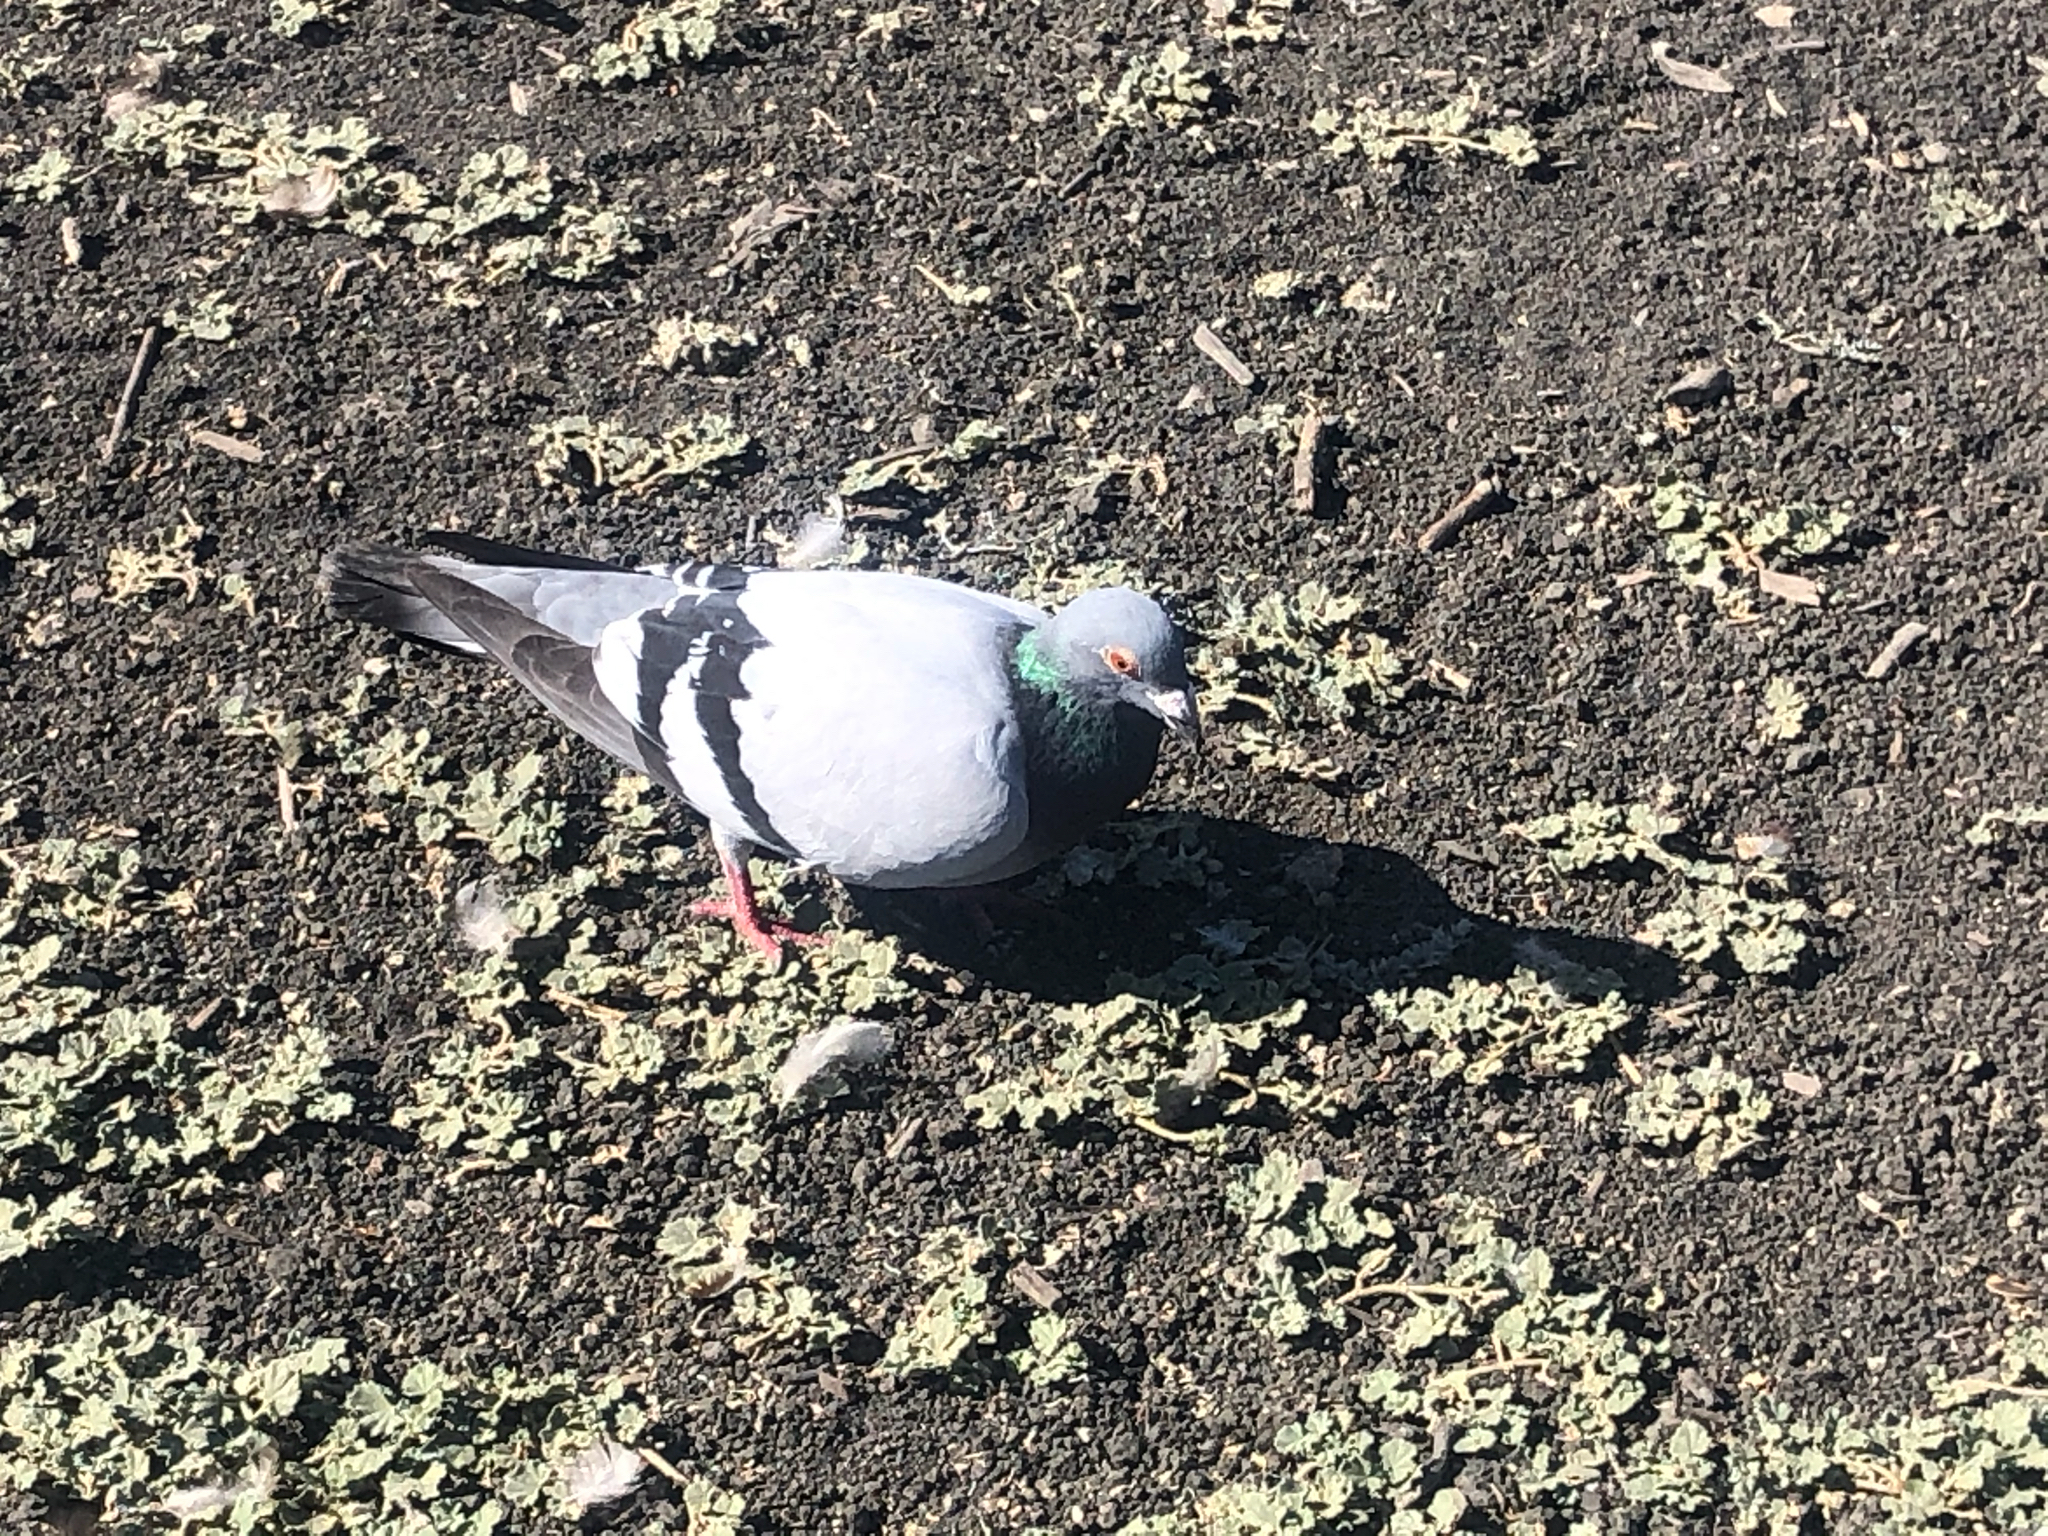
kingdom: Animalia
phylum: Chordata
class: Aves
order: Columbiformes
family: Columbidae
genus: Columba
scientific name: Columba livia
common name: Rock pigeon
